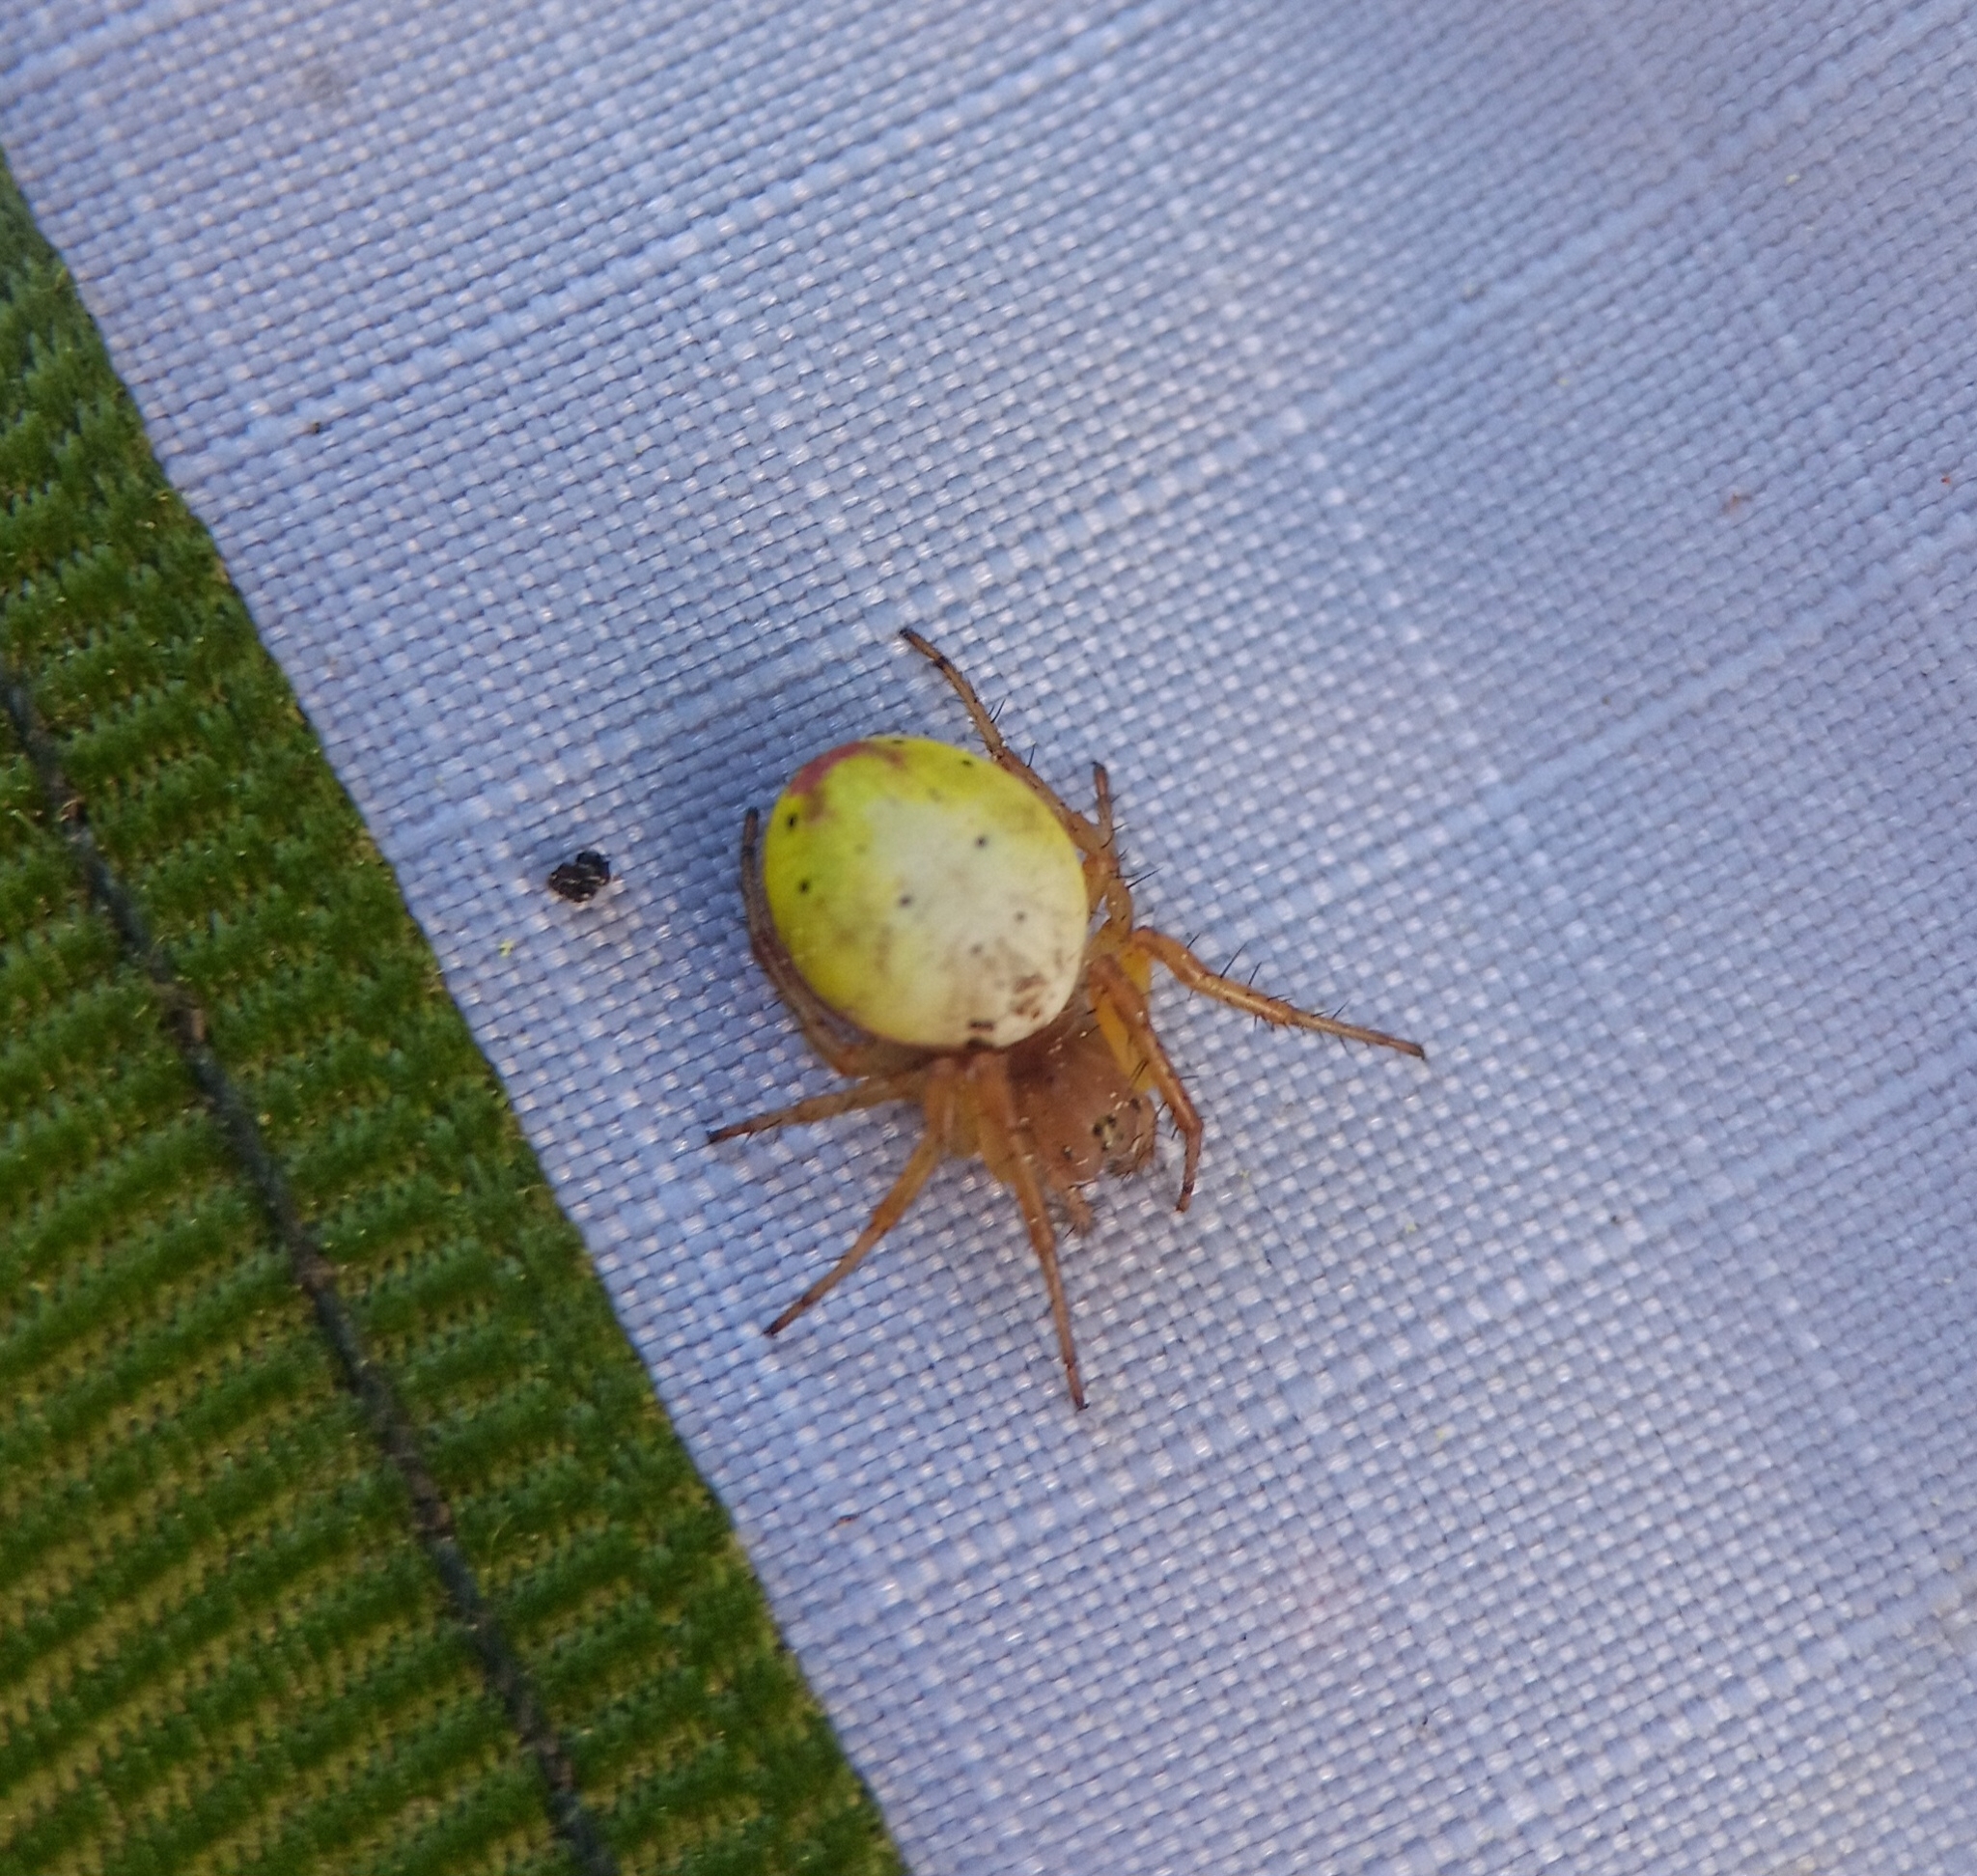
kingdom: Animalia
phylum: Arthropoda
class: Arachnida
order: Araneae
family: Araneidae
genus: Araniella
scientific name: Araniella displicata
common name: Sixspotted orb weaver
